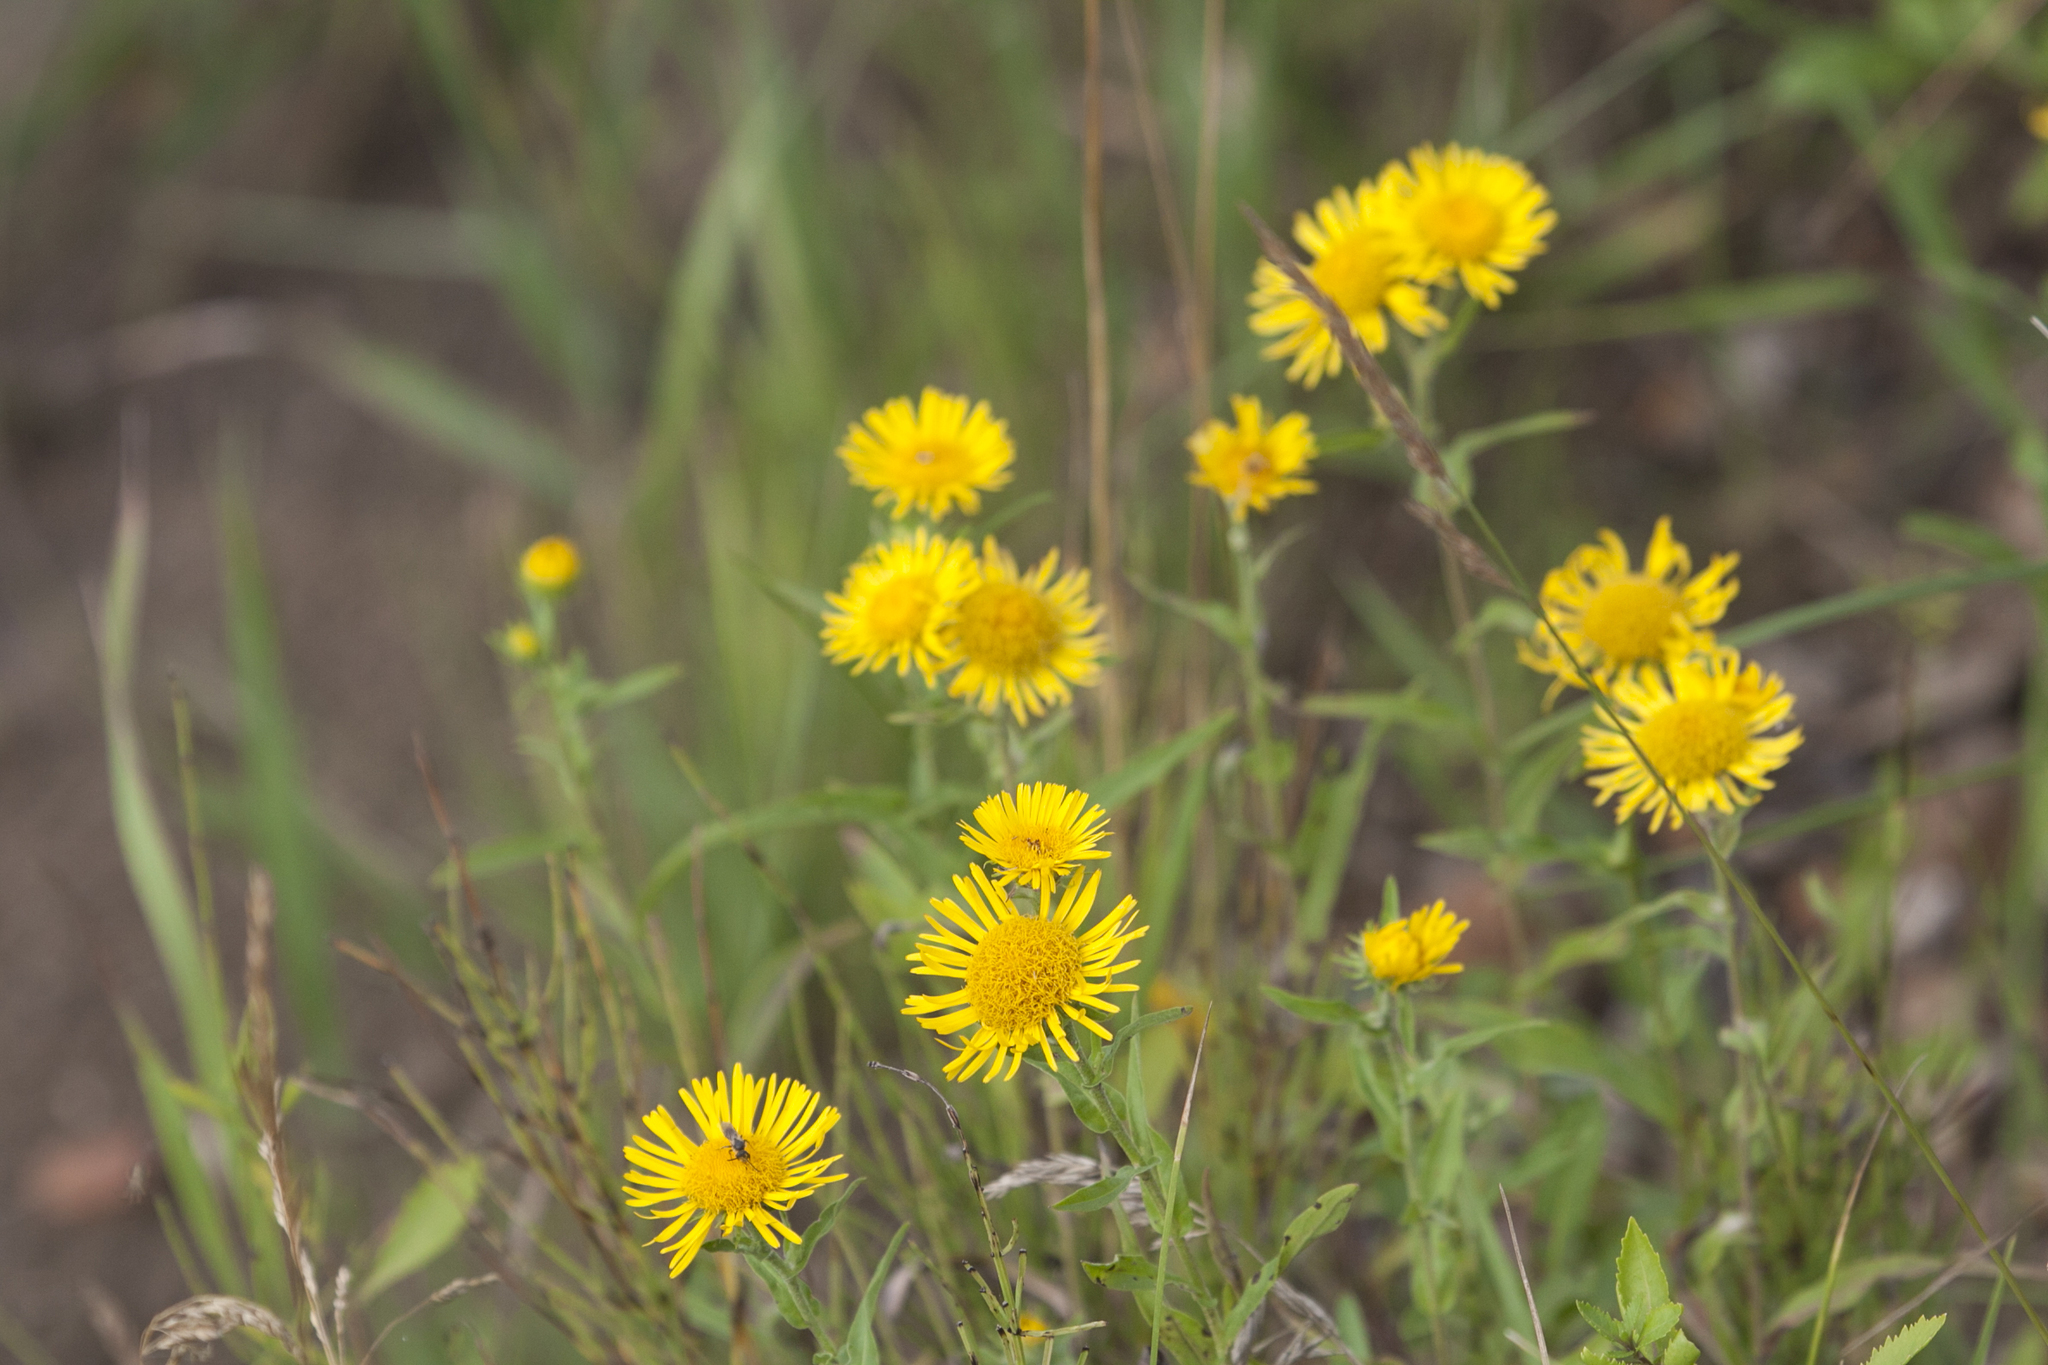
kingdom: Plantae
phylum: Tracheophyta
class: Magnoliopsida
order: Asterales
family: Asteraceae
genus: Pentanema
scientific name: Pentanema britannicum
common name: British elecampane
